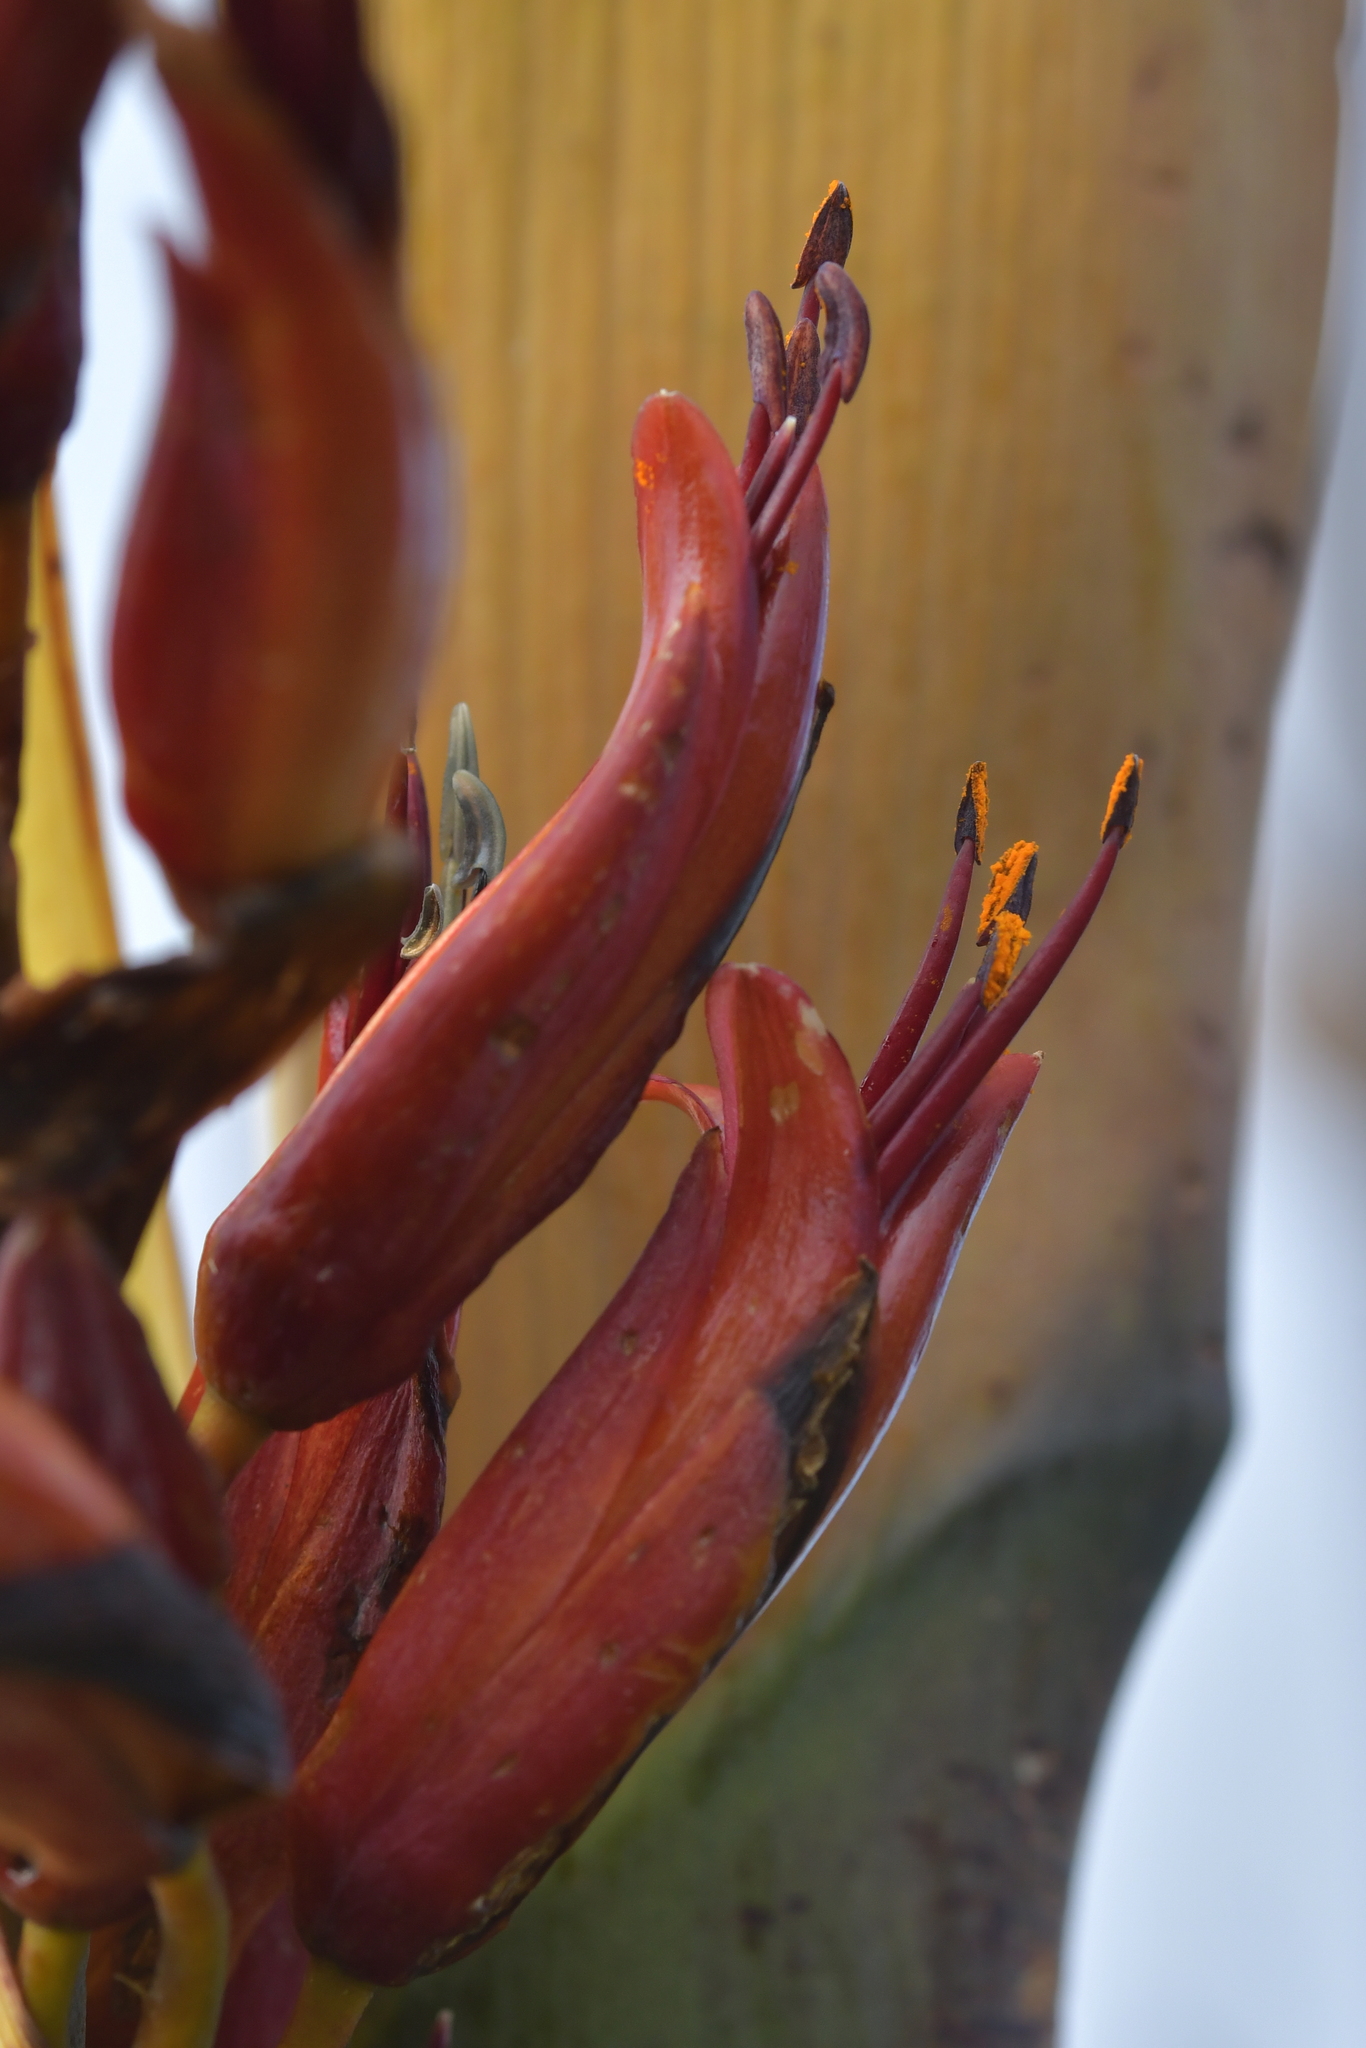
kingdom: Plantae
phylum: Tracheophyta
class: Liliopsida
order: Asparagales
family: Asphodelaceae
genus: Phormium
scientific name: Phormium tenax
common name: New zealand flax
